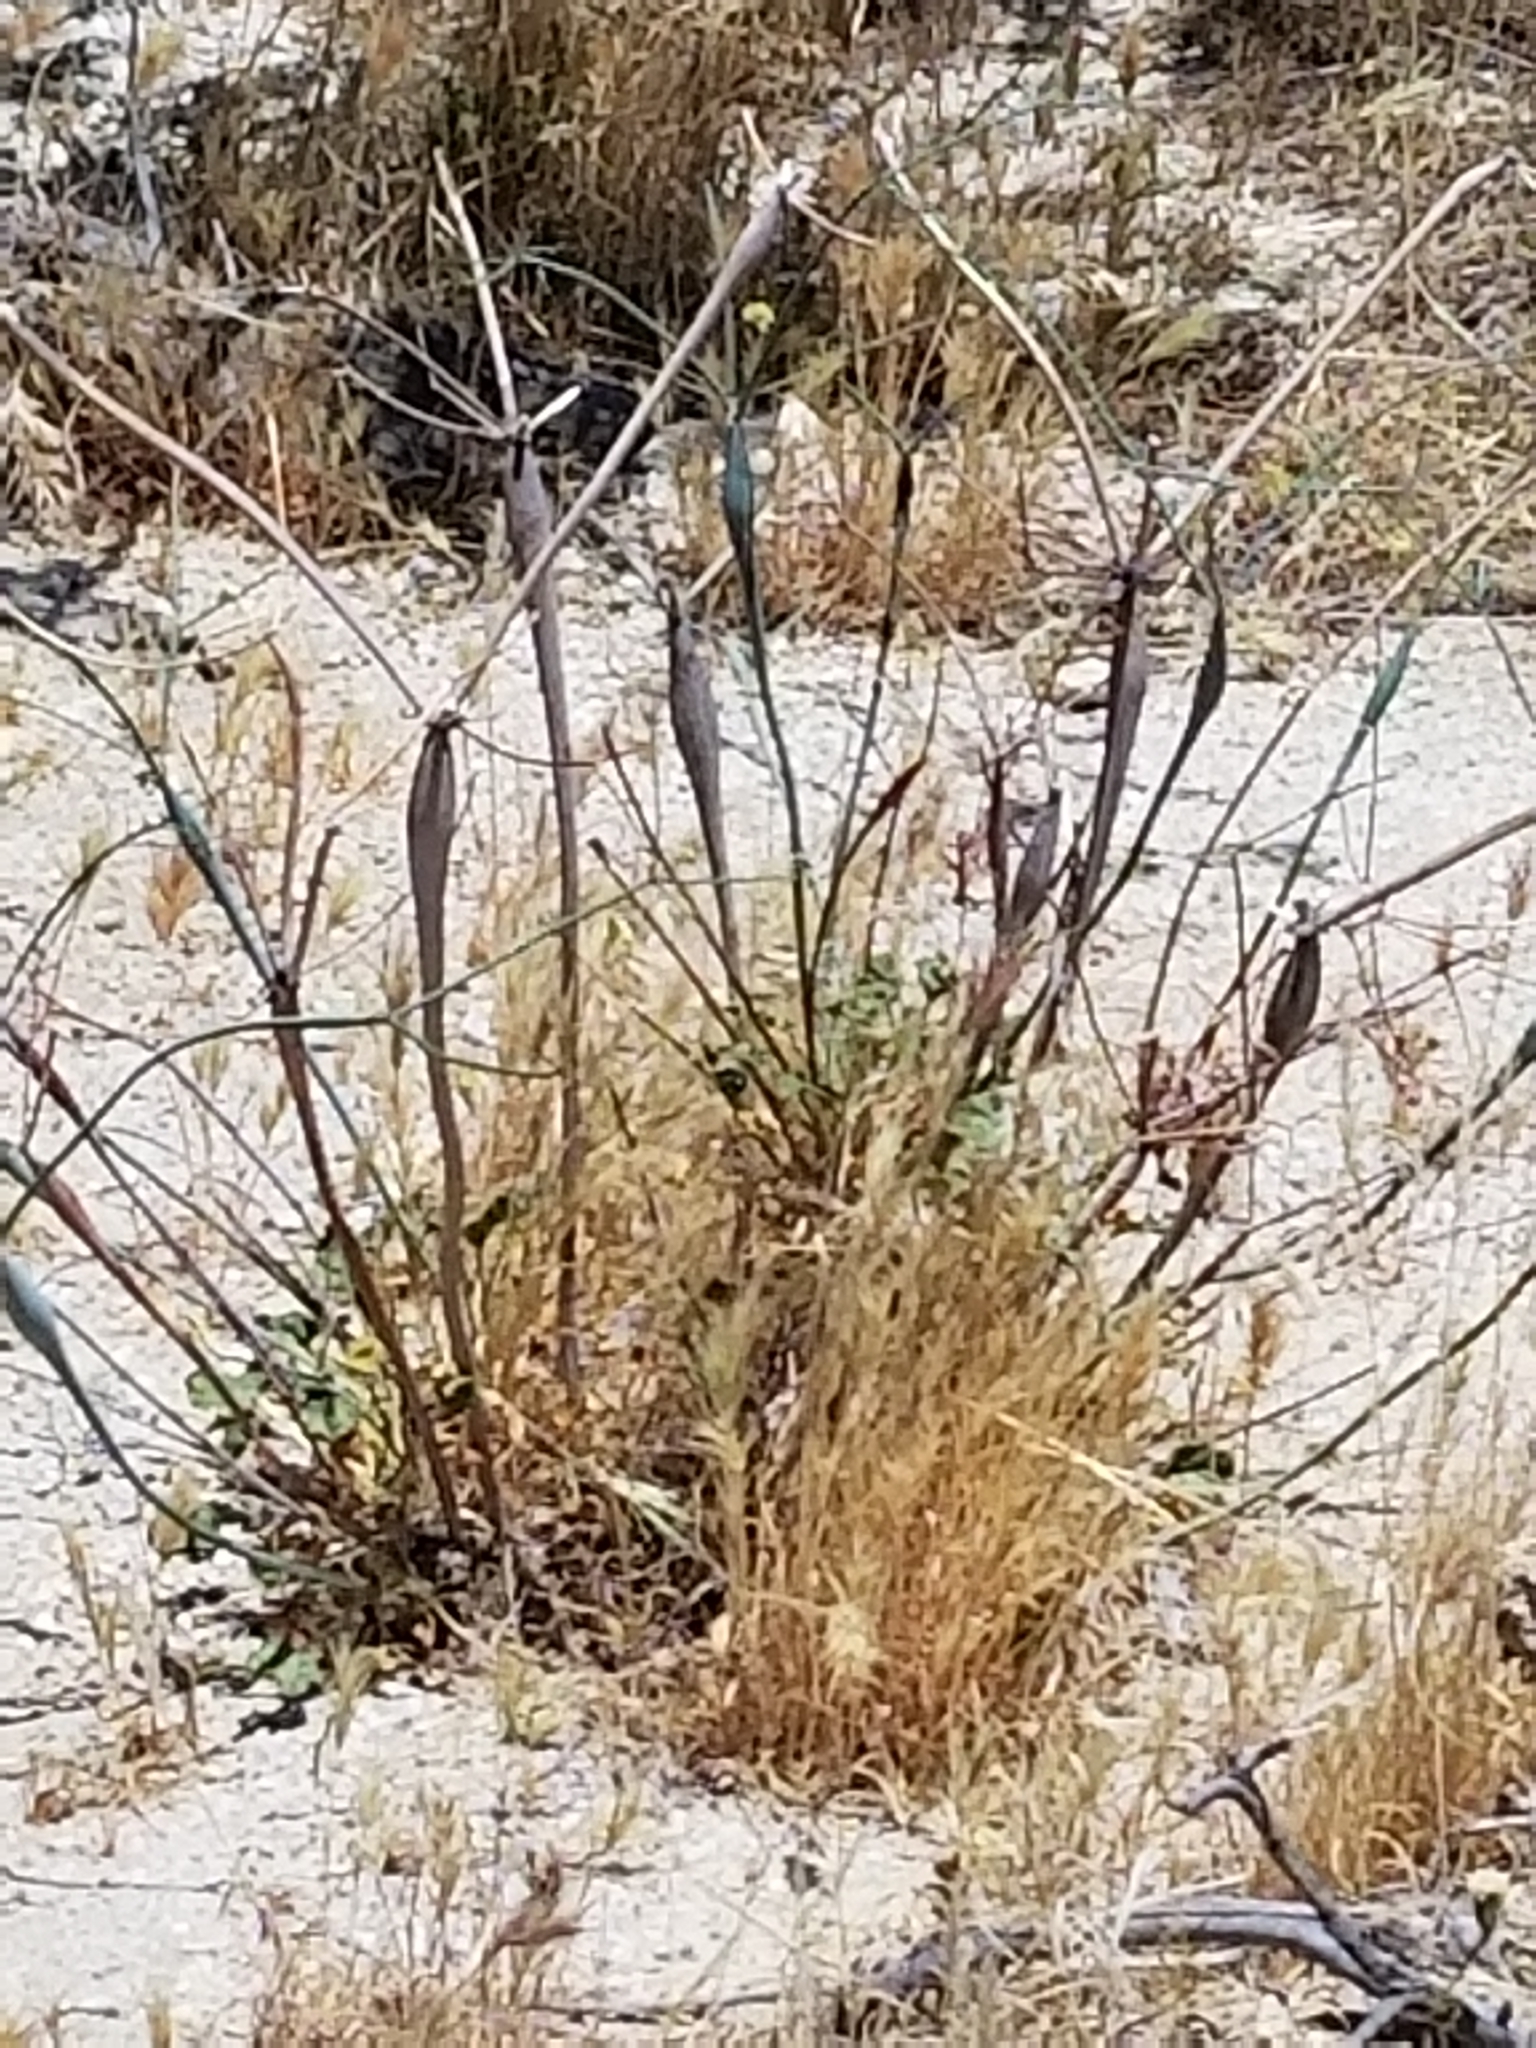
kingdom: Plantae
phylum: Tracheophyta
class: Magnoliopsida
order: Caryophyllales
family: Polygonaceae
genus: Eriogonum
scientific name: Eriogonum inflatum
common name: Desert trumpet
